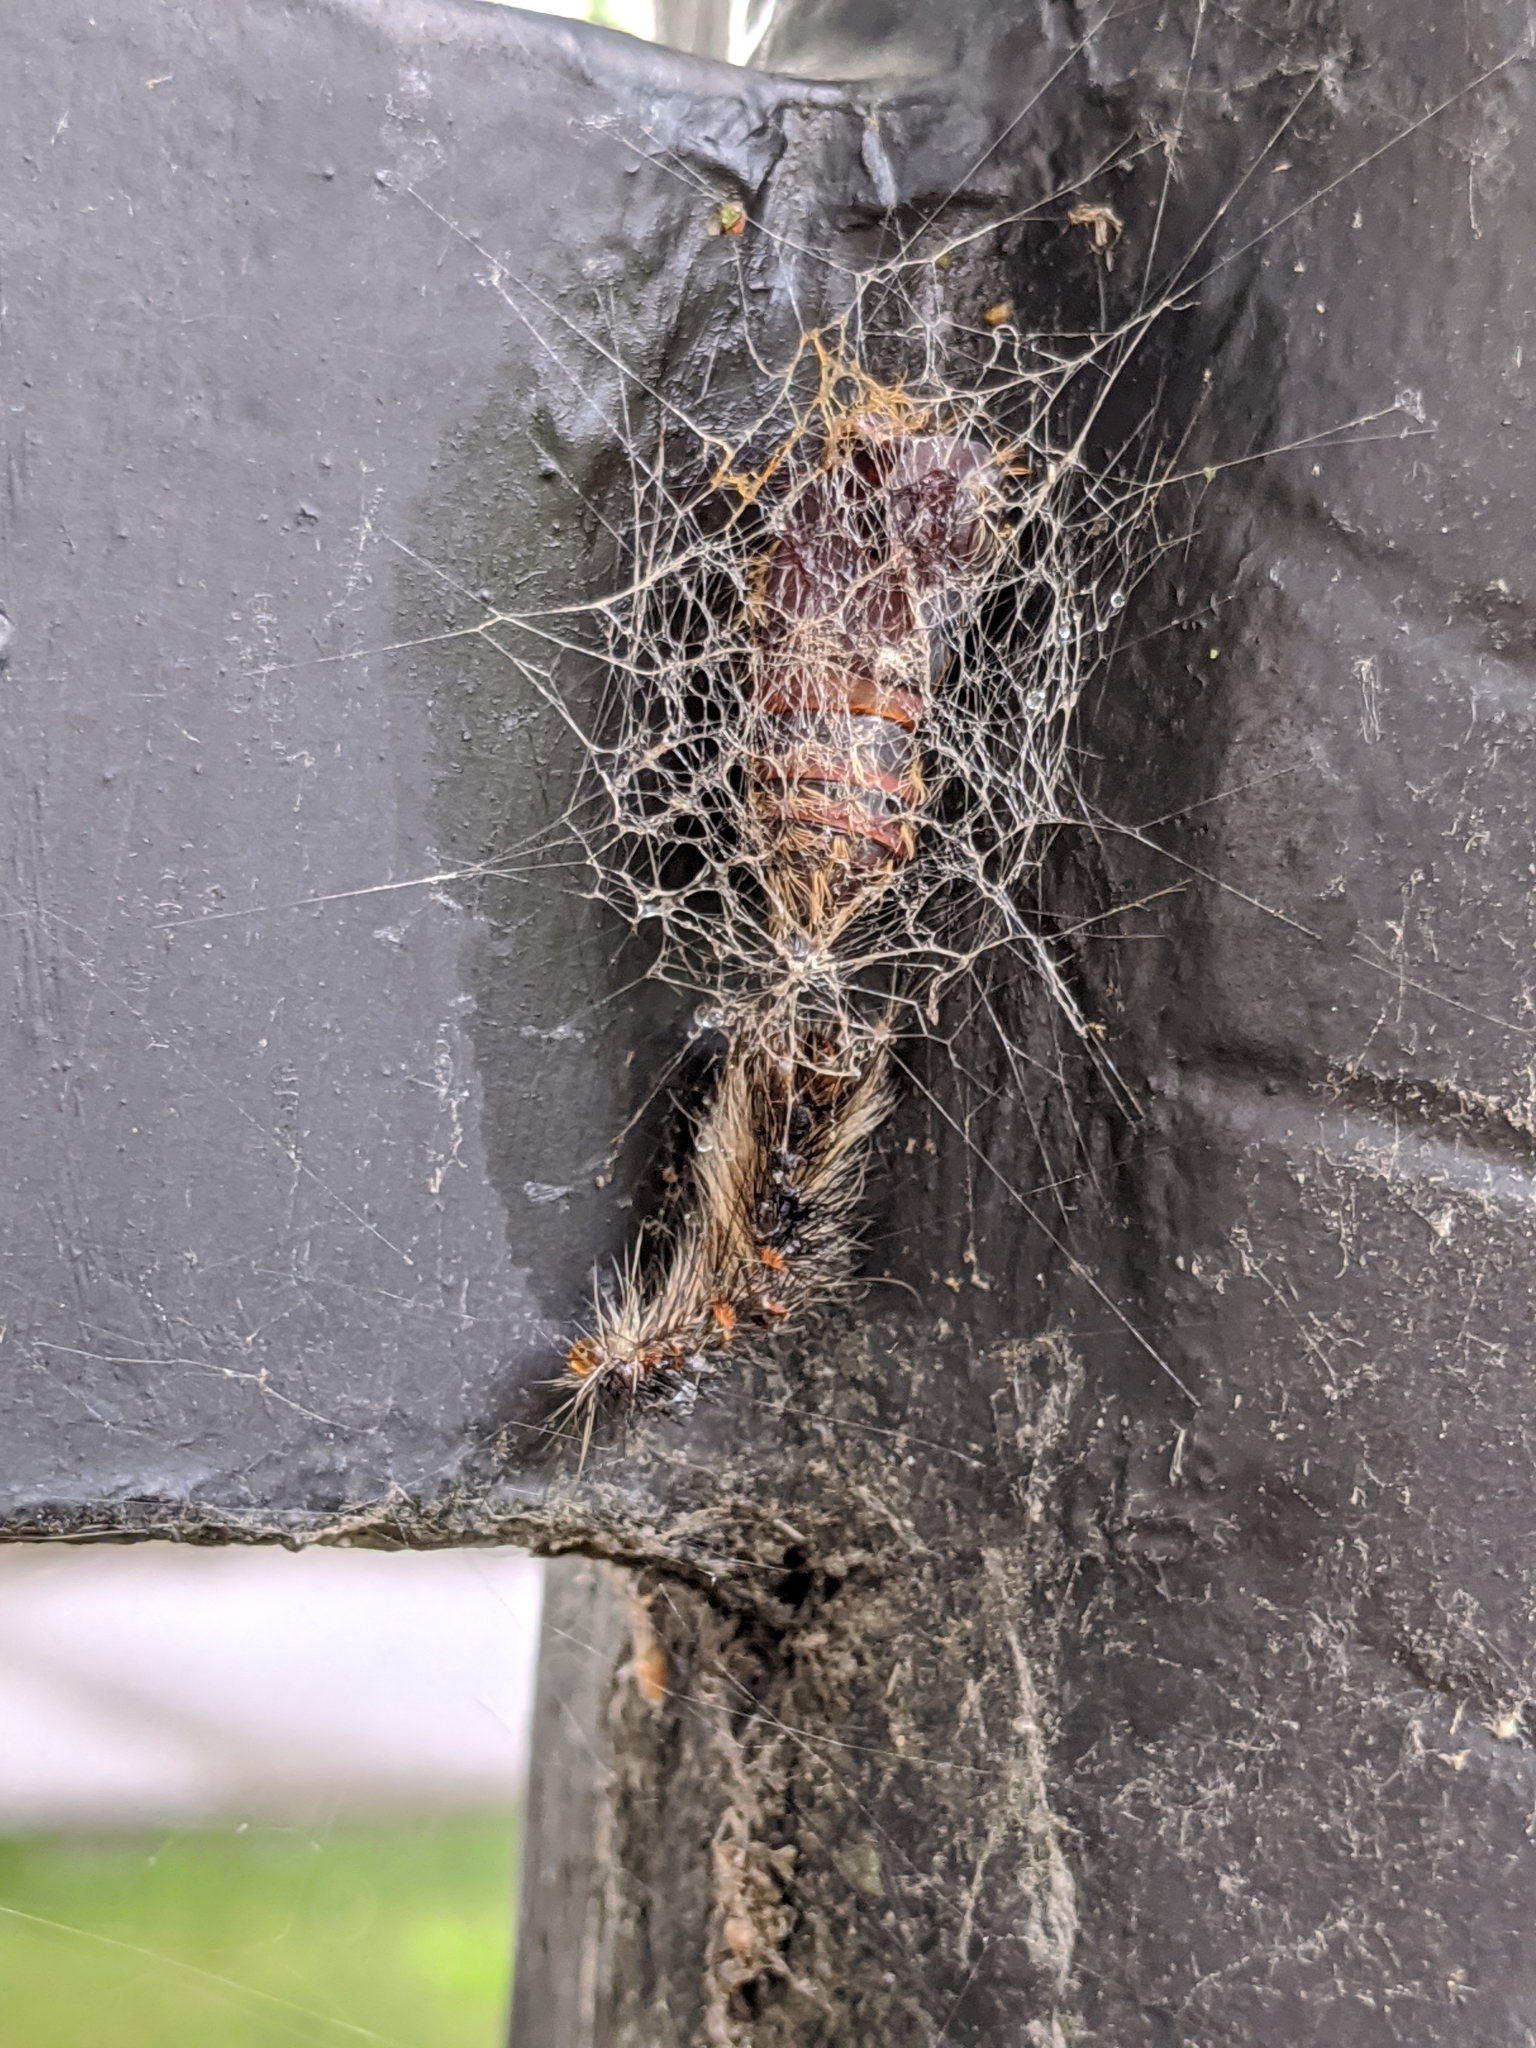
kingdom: Animalia
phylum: Arthropoda
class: Insecta
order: Lepidoptera
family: Erebidae
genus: Lymantria
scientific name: Lymantria dispar
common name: Gypsy moth
